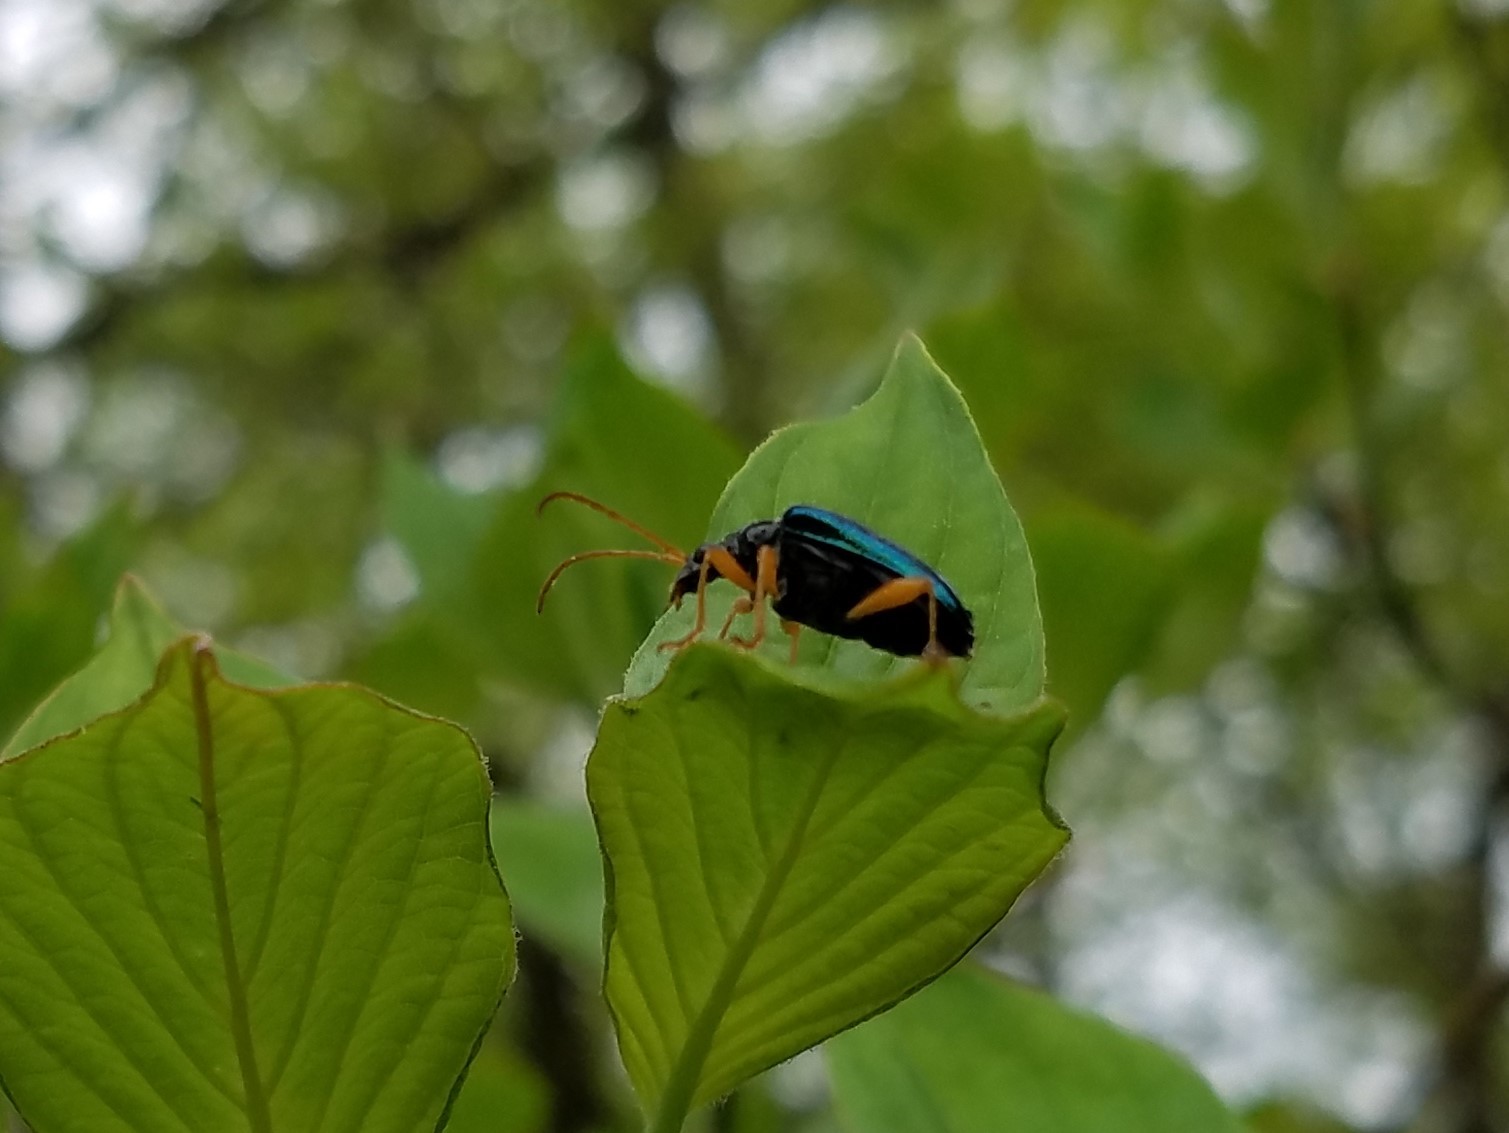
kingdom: Animalia
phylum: Arthropoda
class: Insecta
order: Coleoptera
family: Cerambycidae
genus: Gaurotes
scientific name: Gaurotes cyanipennis
